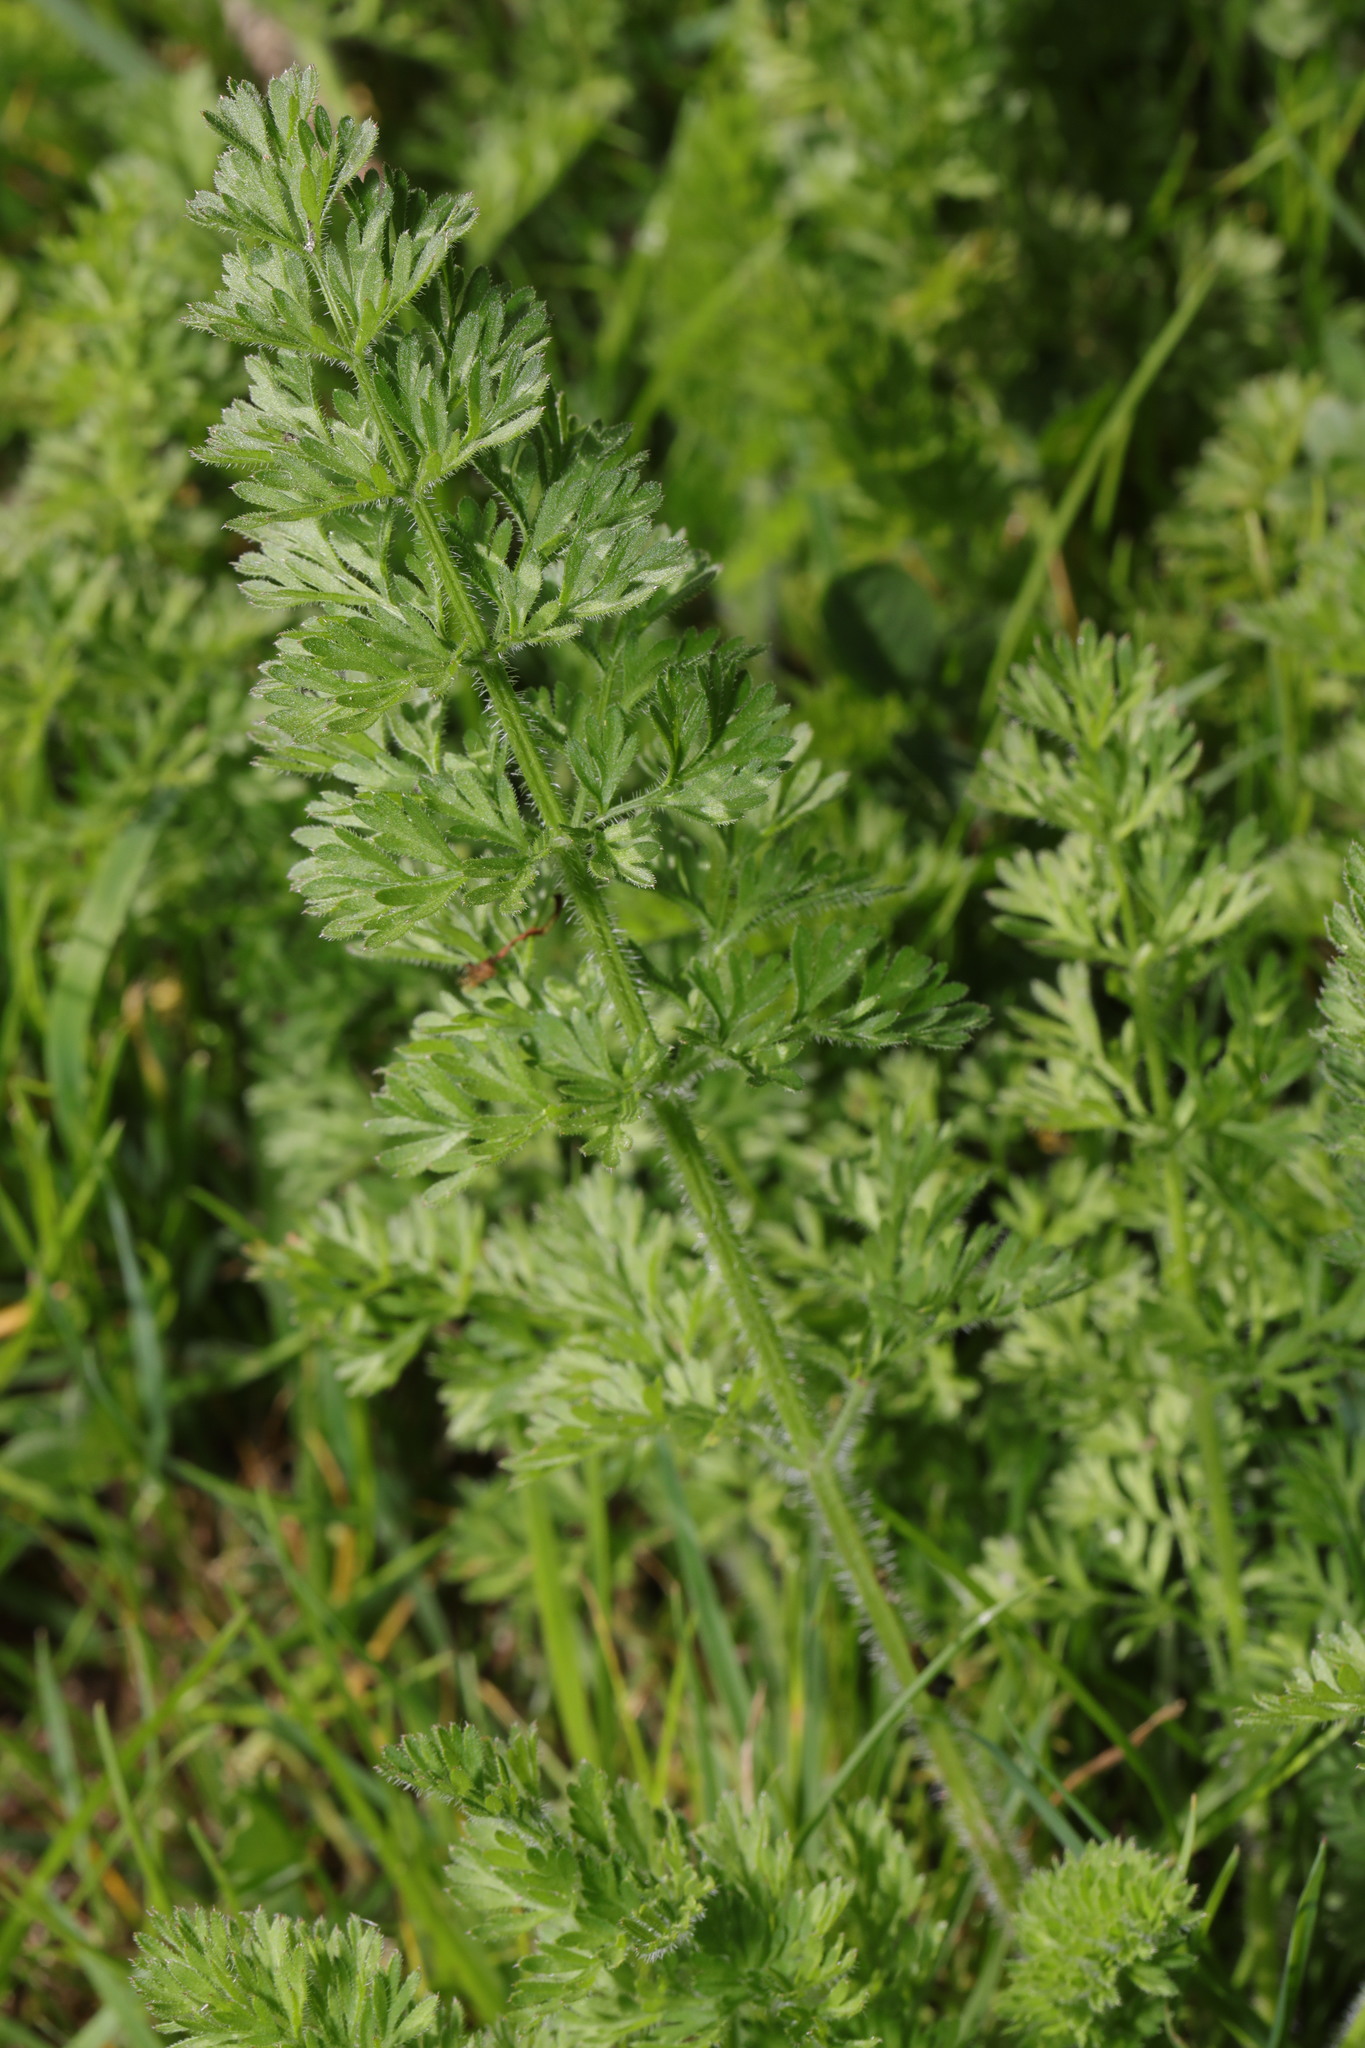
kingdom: Plantae
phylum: Tracheophyta
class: Magnoliopsida
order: Apiales
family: Apiaceae
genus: Daucus
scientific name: Daucus carota
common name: Wild carrot
